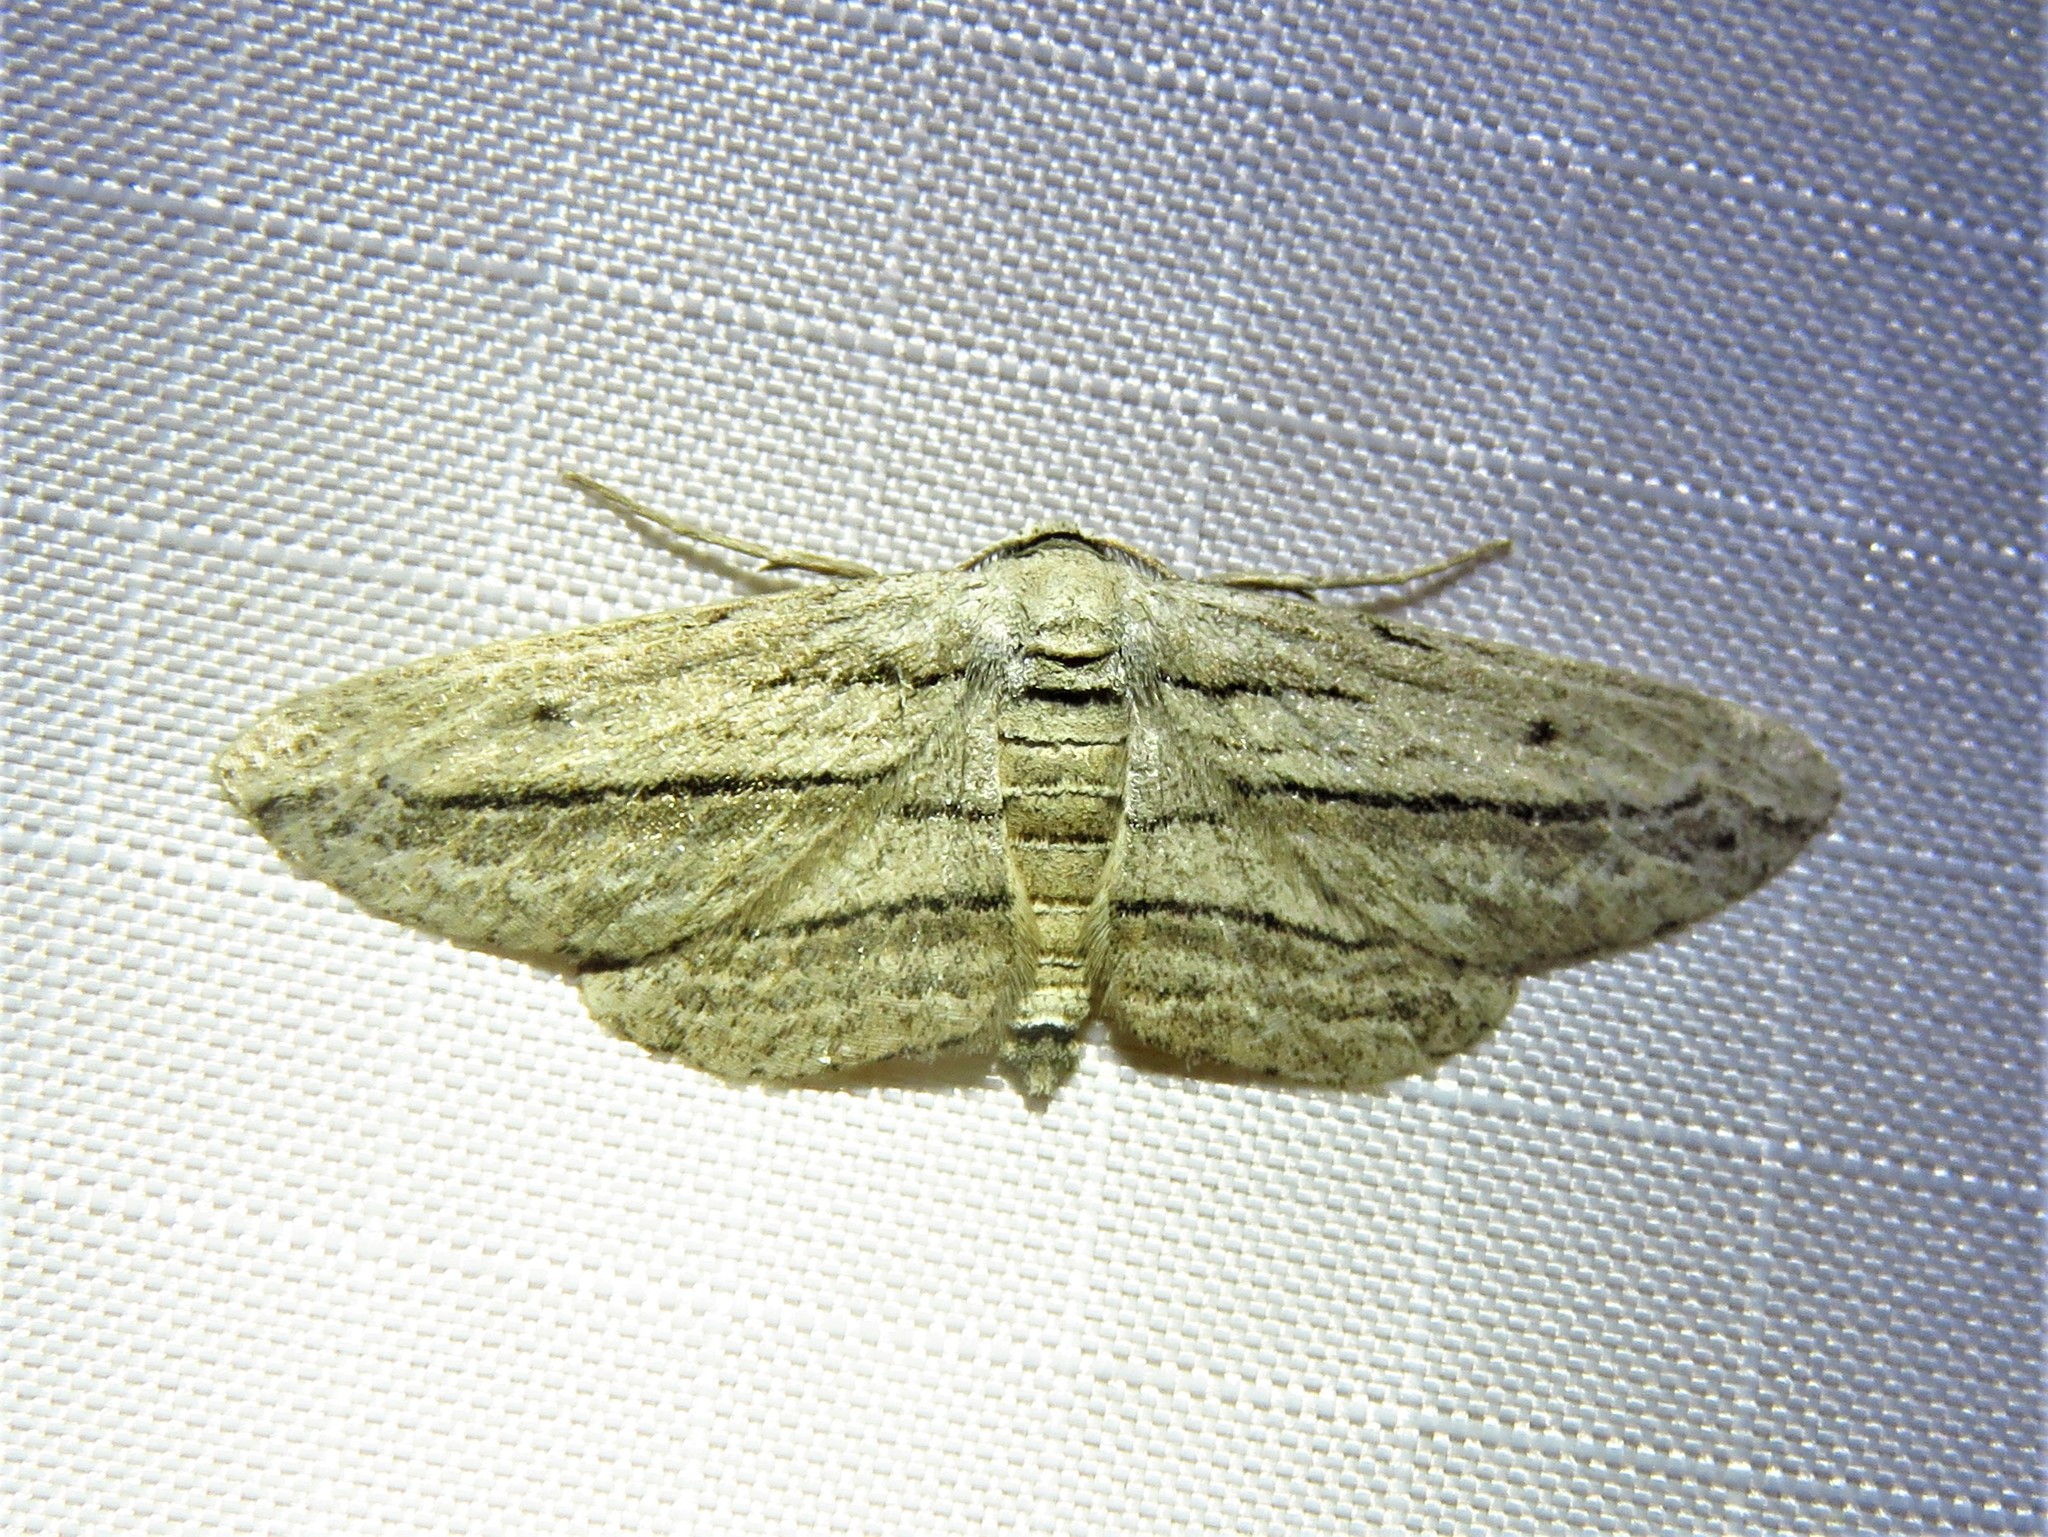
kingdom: Animalia
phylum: Arthropoda
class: Insecta
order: Lepidoptera
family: Geometridae
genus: Glena
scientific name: Glena quinquelinearia
